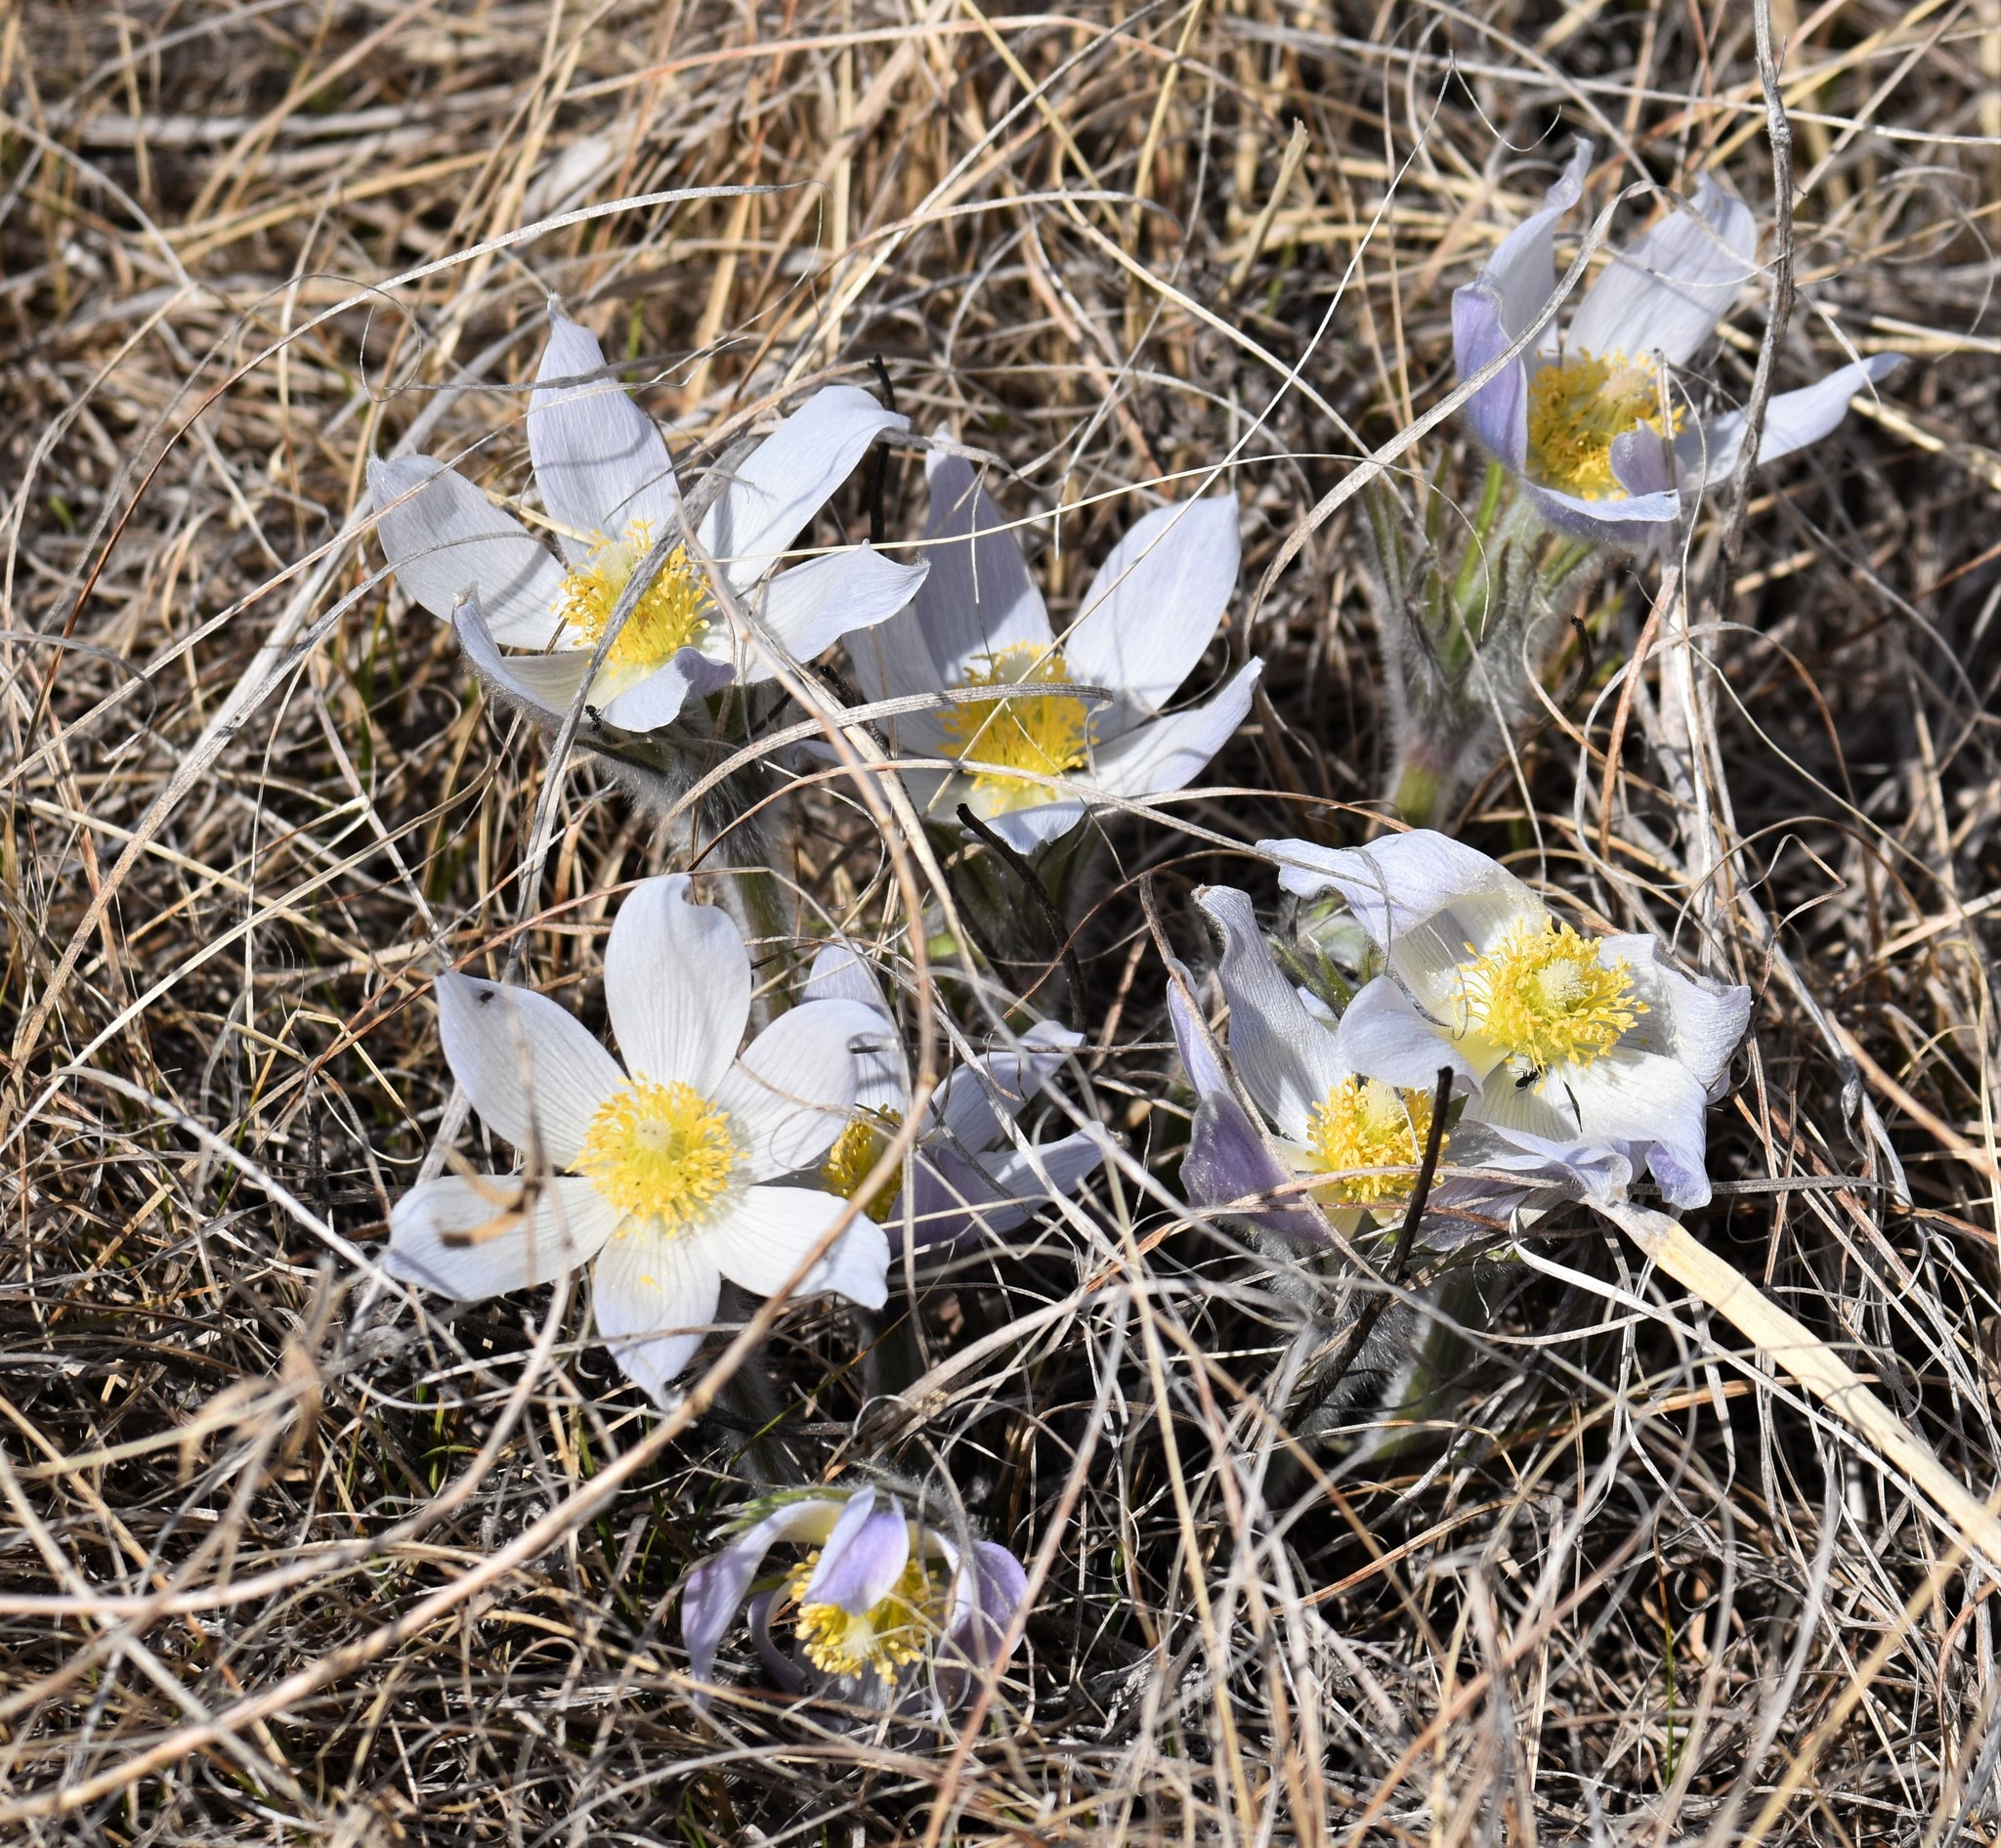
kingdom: Plantae
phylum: Tracheophyta
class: Magnoliopsida
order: Ranunculales
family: Ranunculaceae
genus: Pulsatilla
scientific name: Pulsatilla nuttalliana
